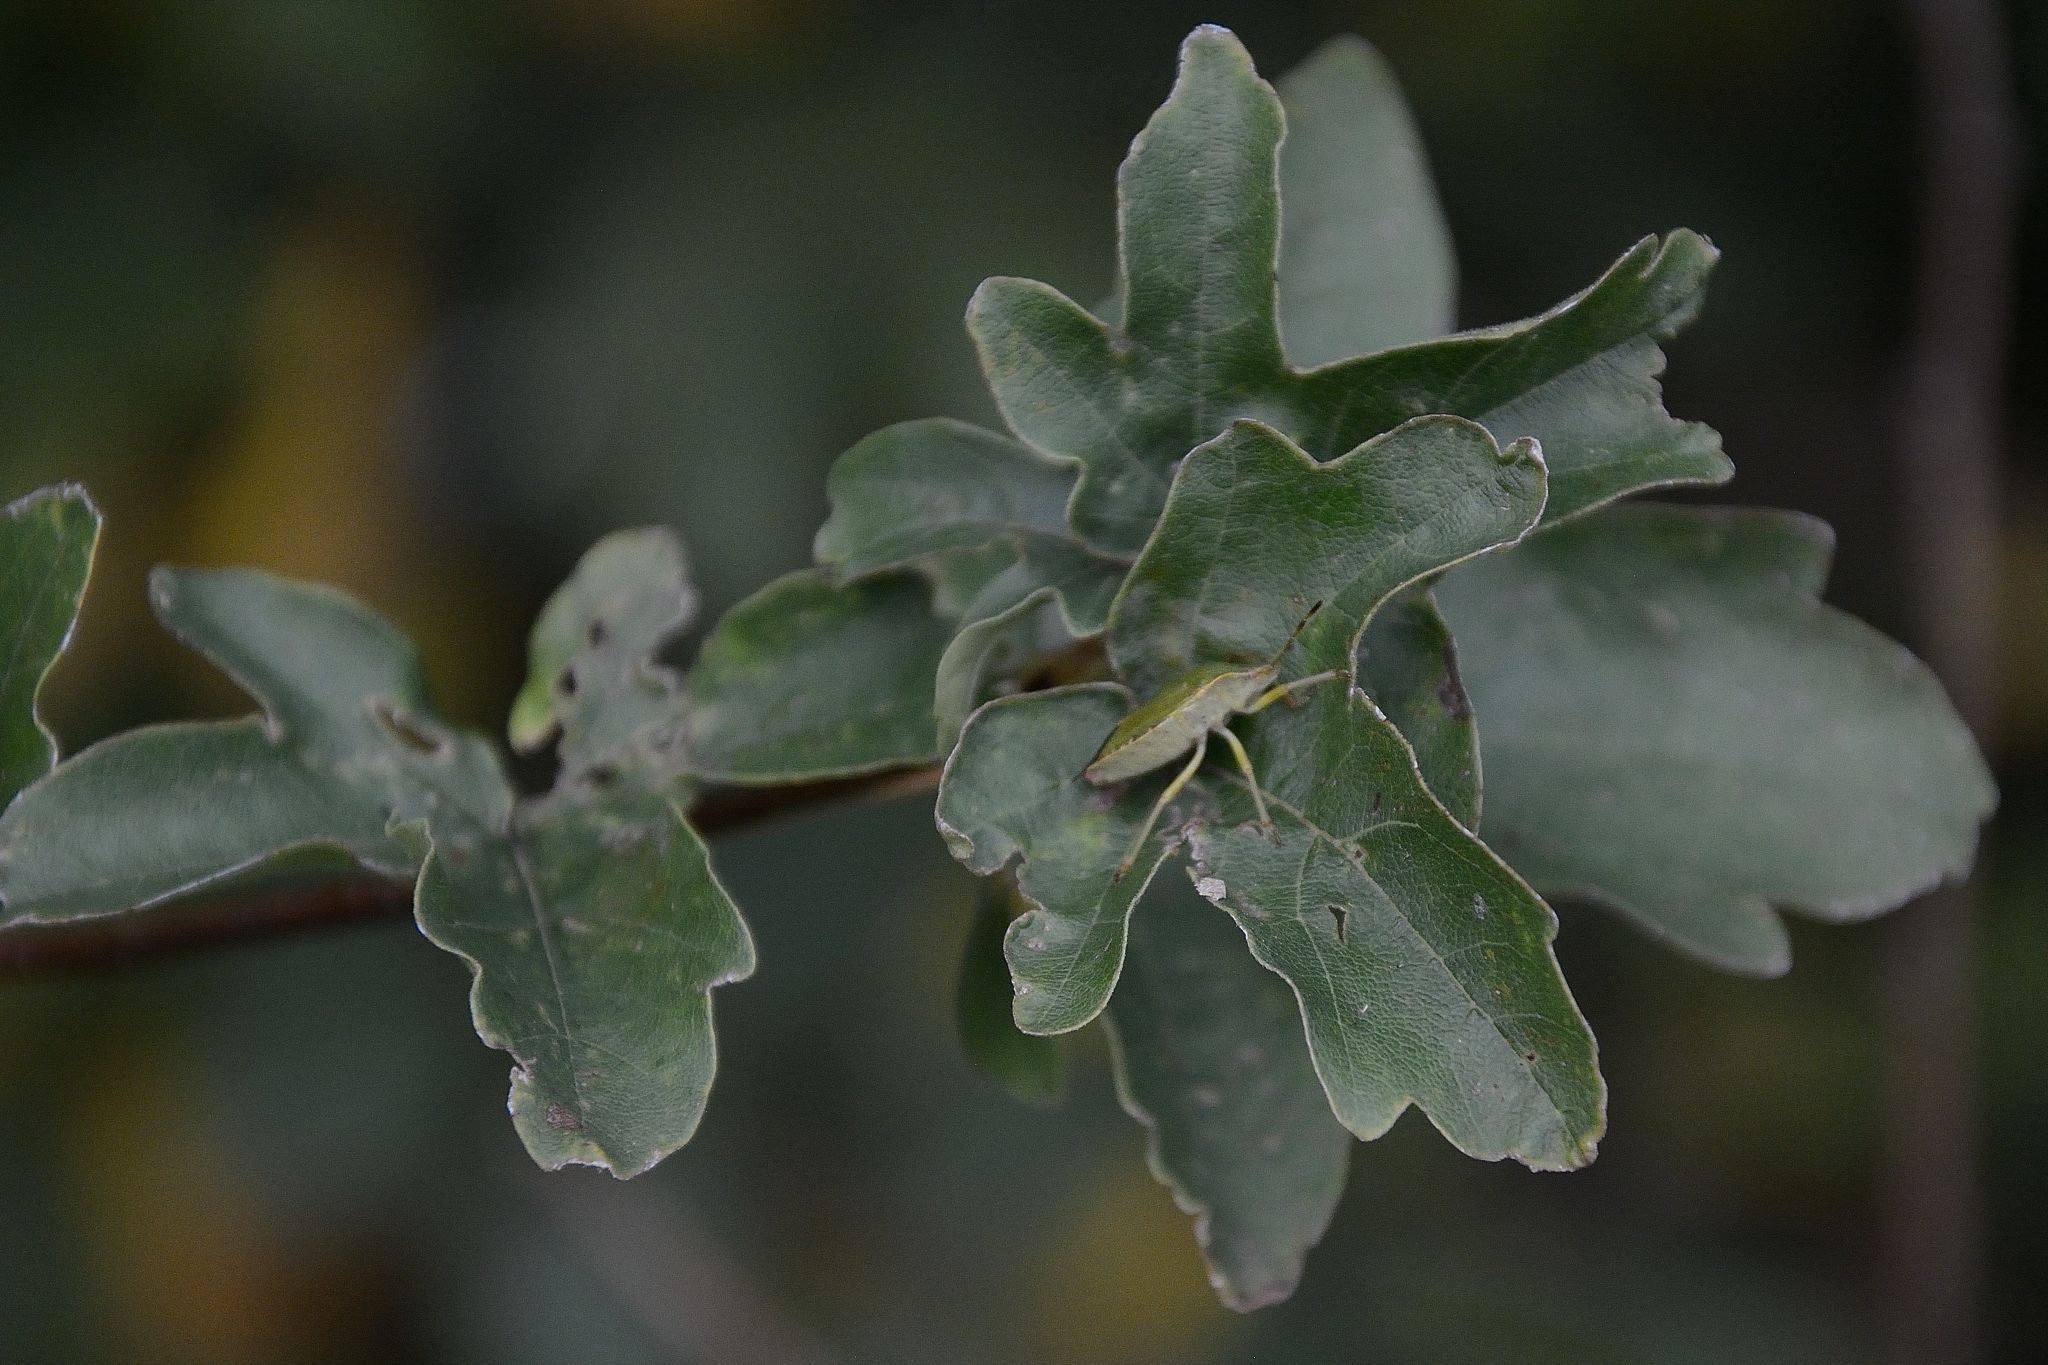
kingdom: Animalia
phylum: Arthropoda
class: Insecta
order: Hemiptera
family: Pentatomidae
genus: Palomena
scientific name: Palomena prasina
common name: Green shieldbug
